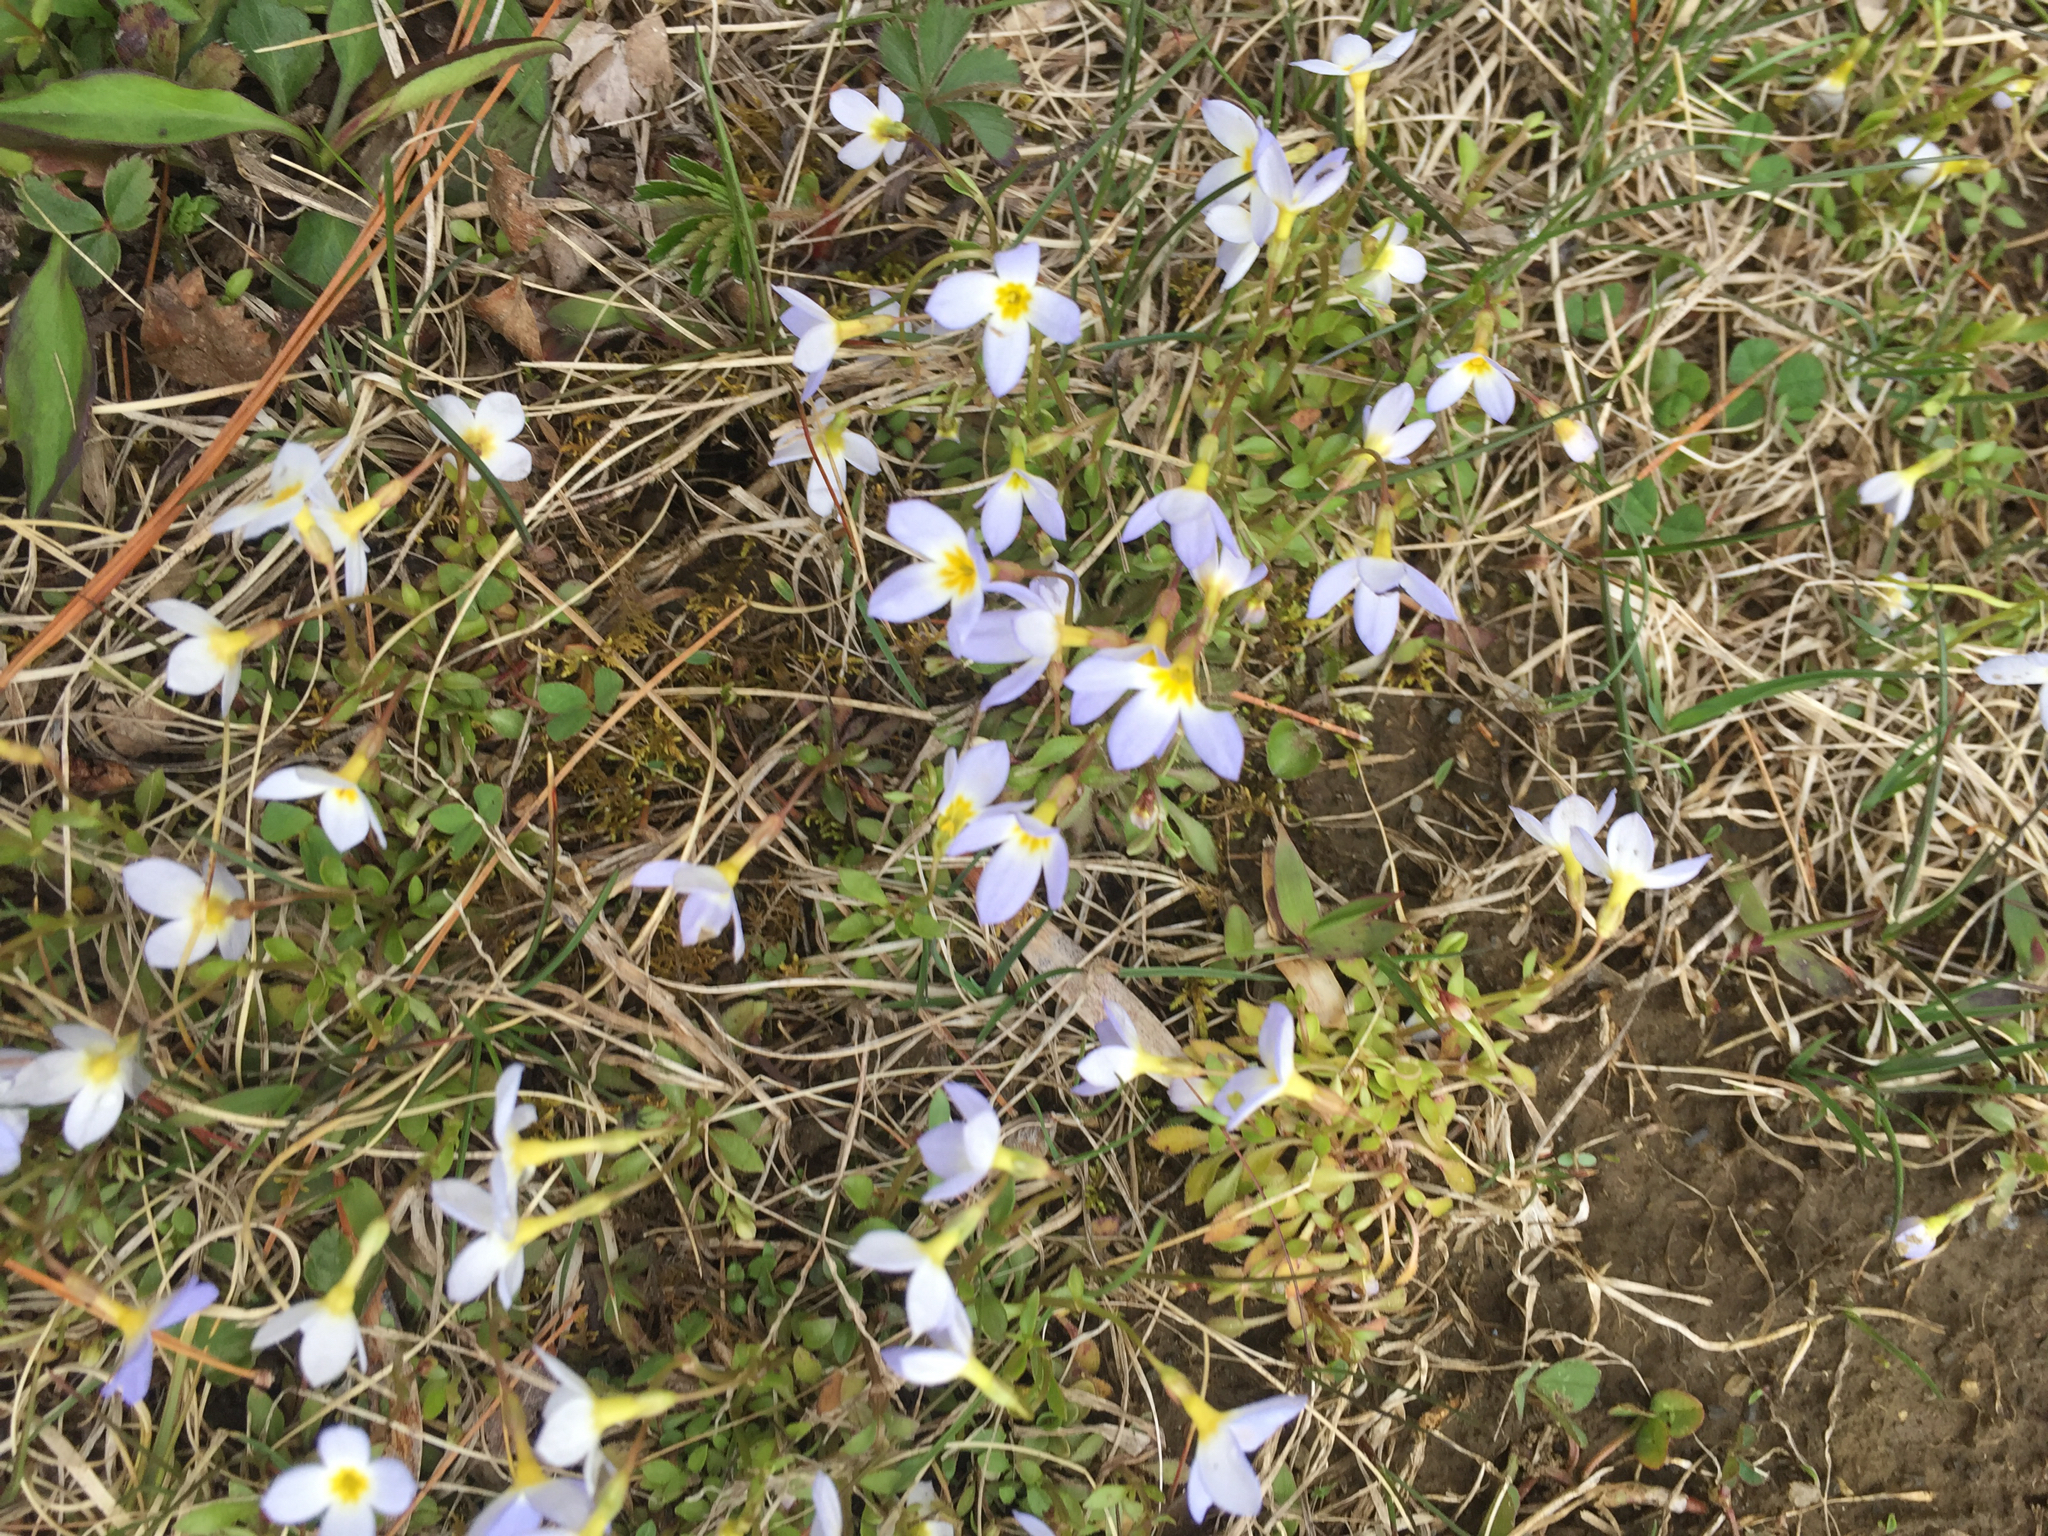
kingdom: Plantae
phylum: Tracheophyta
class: Magnoliopsida
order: Gentianales
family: Rubiaceae
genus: Houstonia
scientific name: Houstonia caerulea
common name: Bluets
